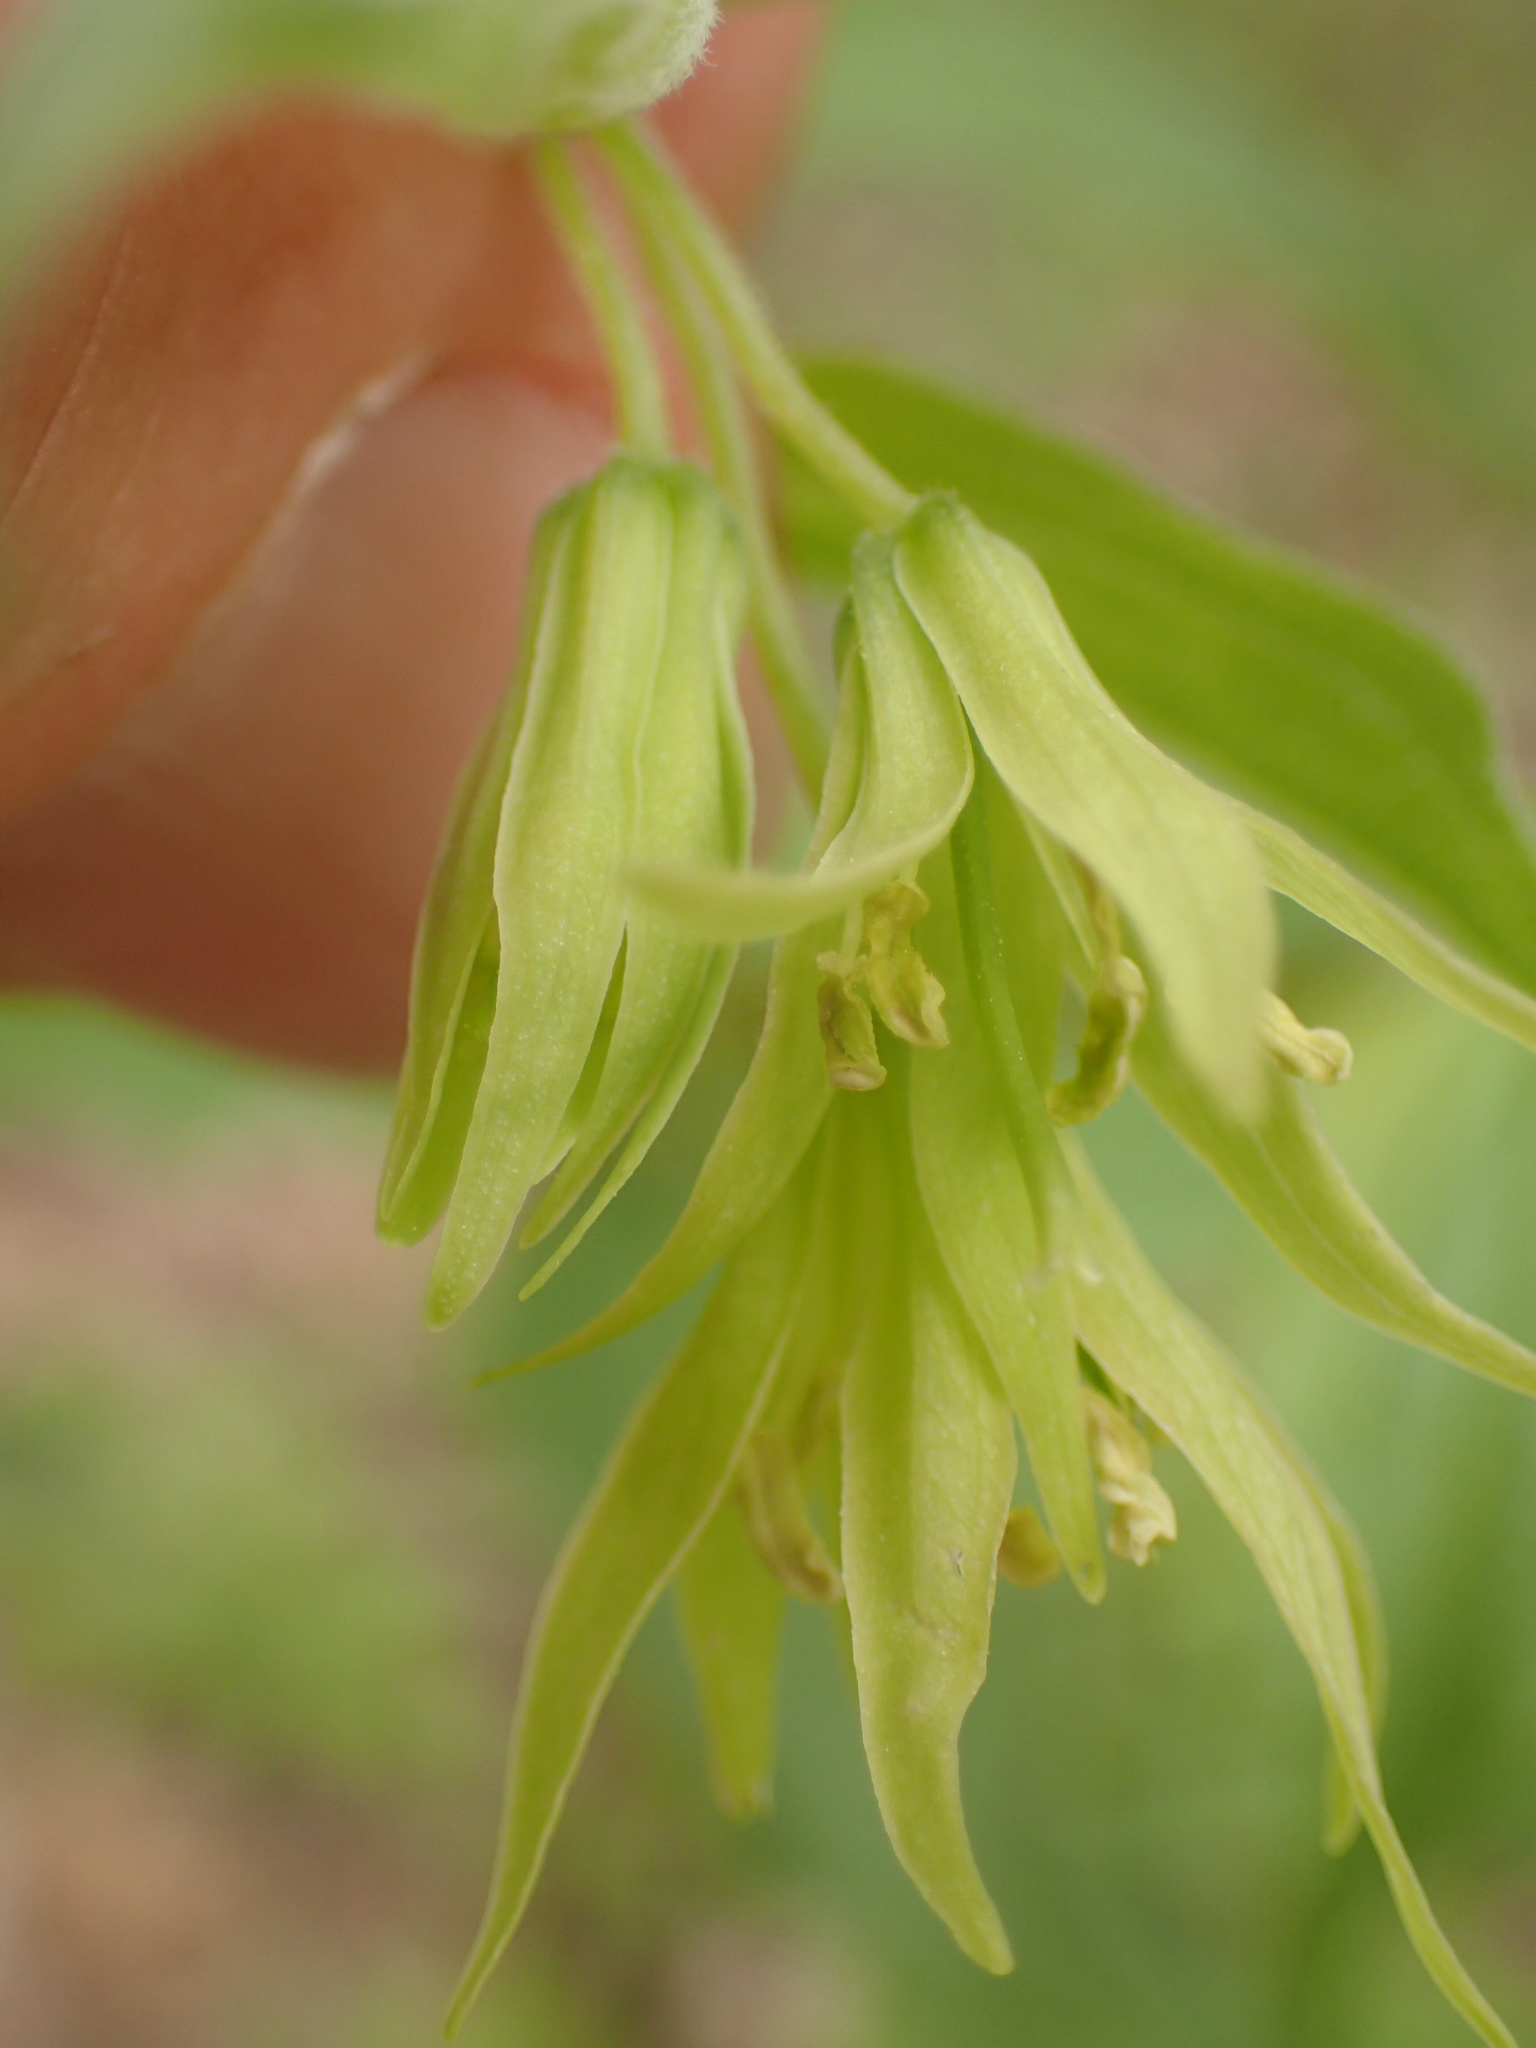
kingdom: Plantae
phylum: Tracheophyta
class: Liliopsida
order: Liliales
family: Liliaceae
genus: Prosartes
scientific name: Prosartes lanuginosa
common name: Hairy mandarin
